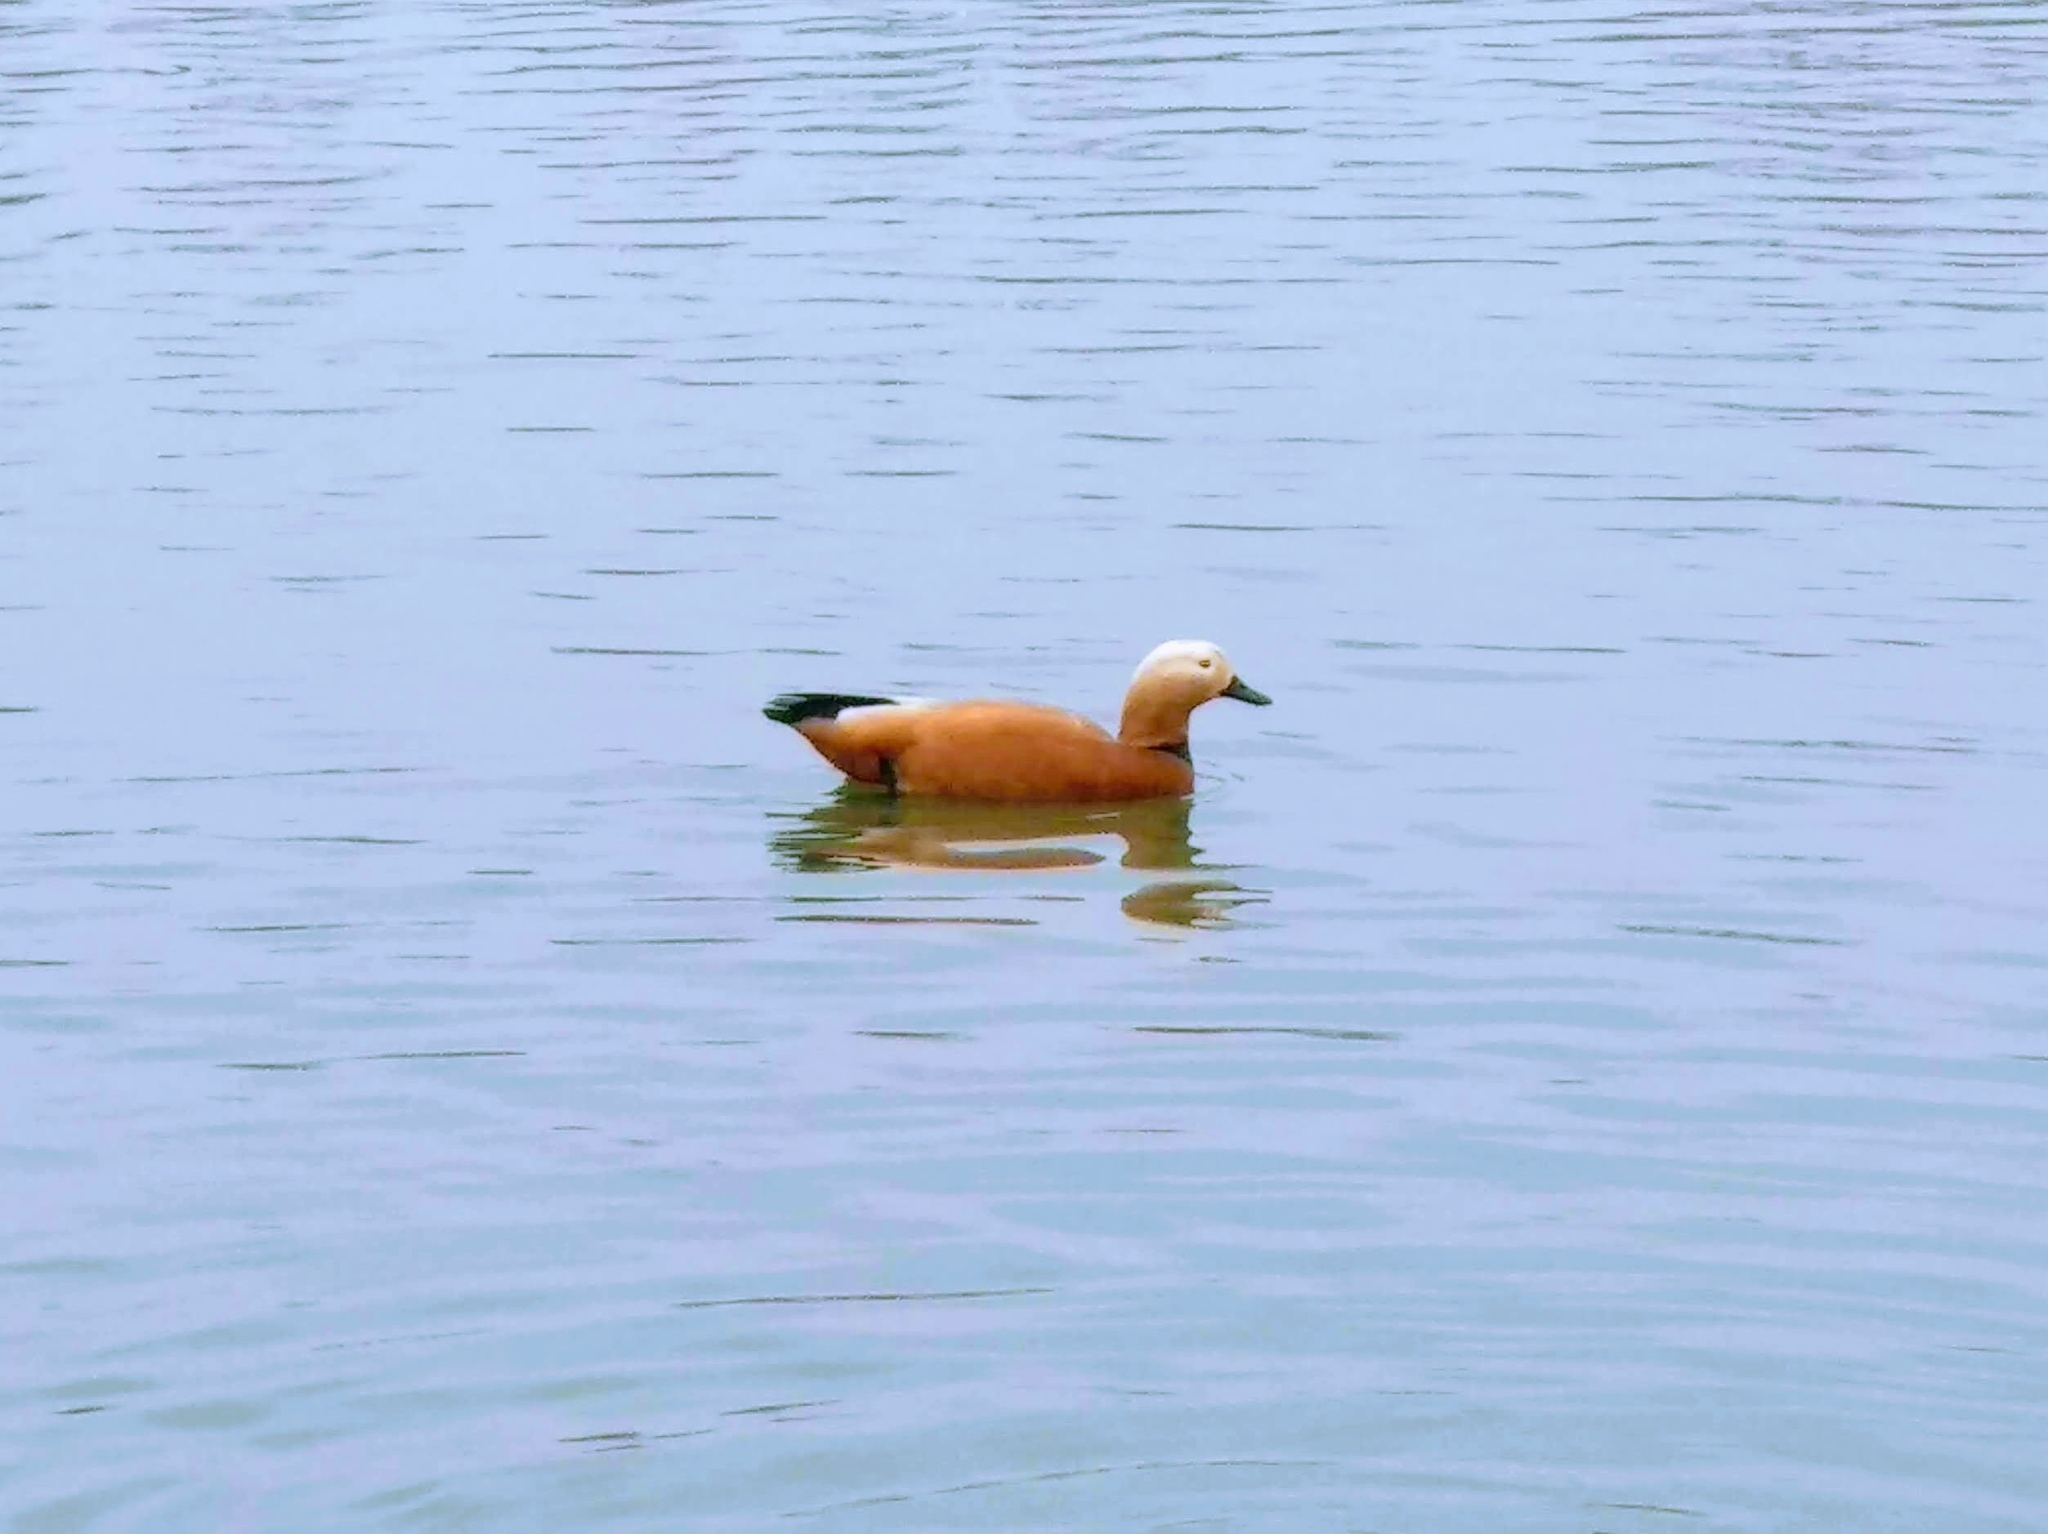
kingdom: Animalia
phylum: Chordata
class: Aves
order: Anseriformes
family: Anatidae
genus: Tadorna
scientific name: Tadorna ferruginea
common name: Ruddy shelduck
